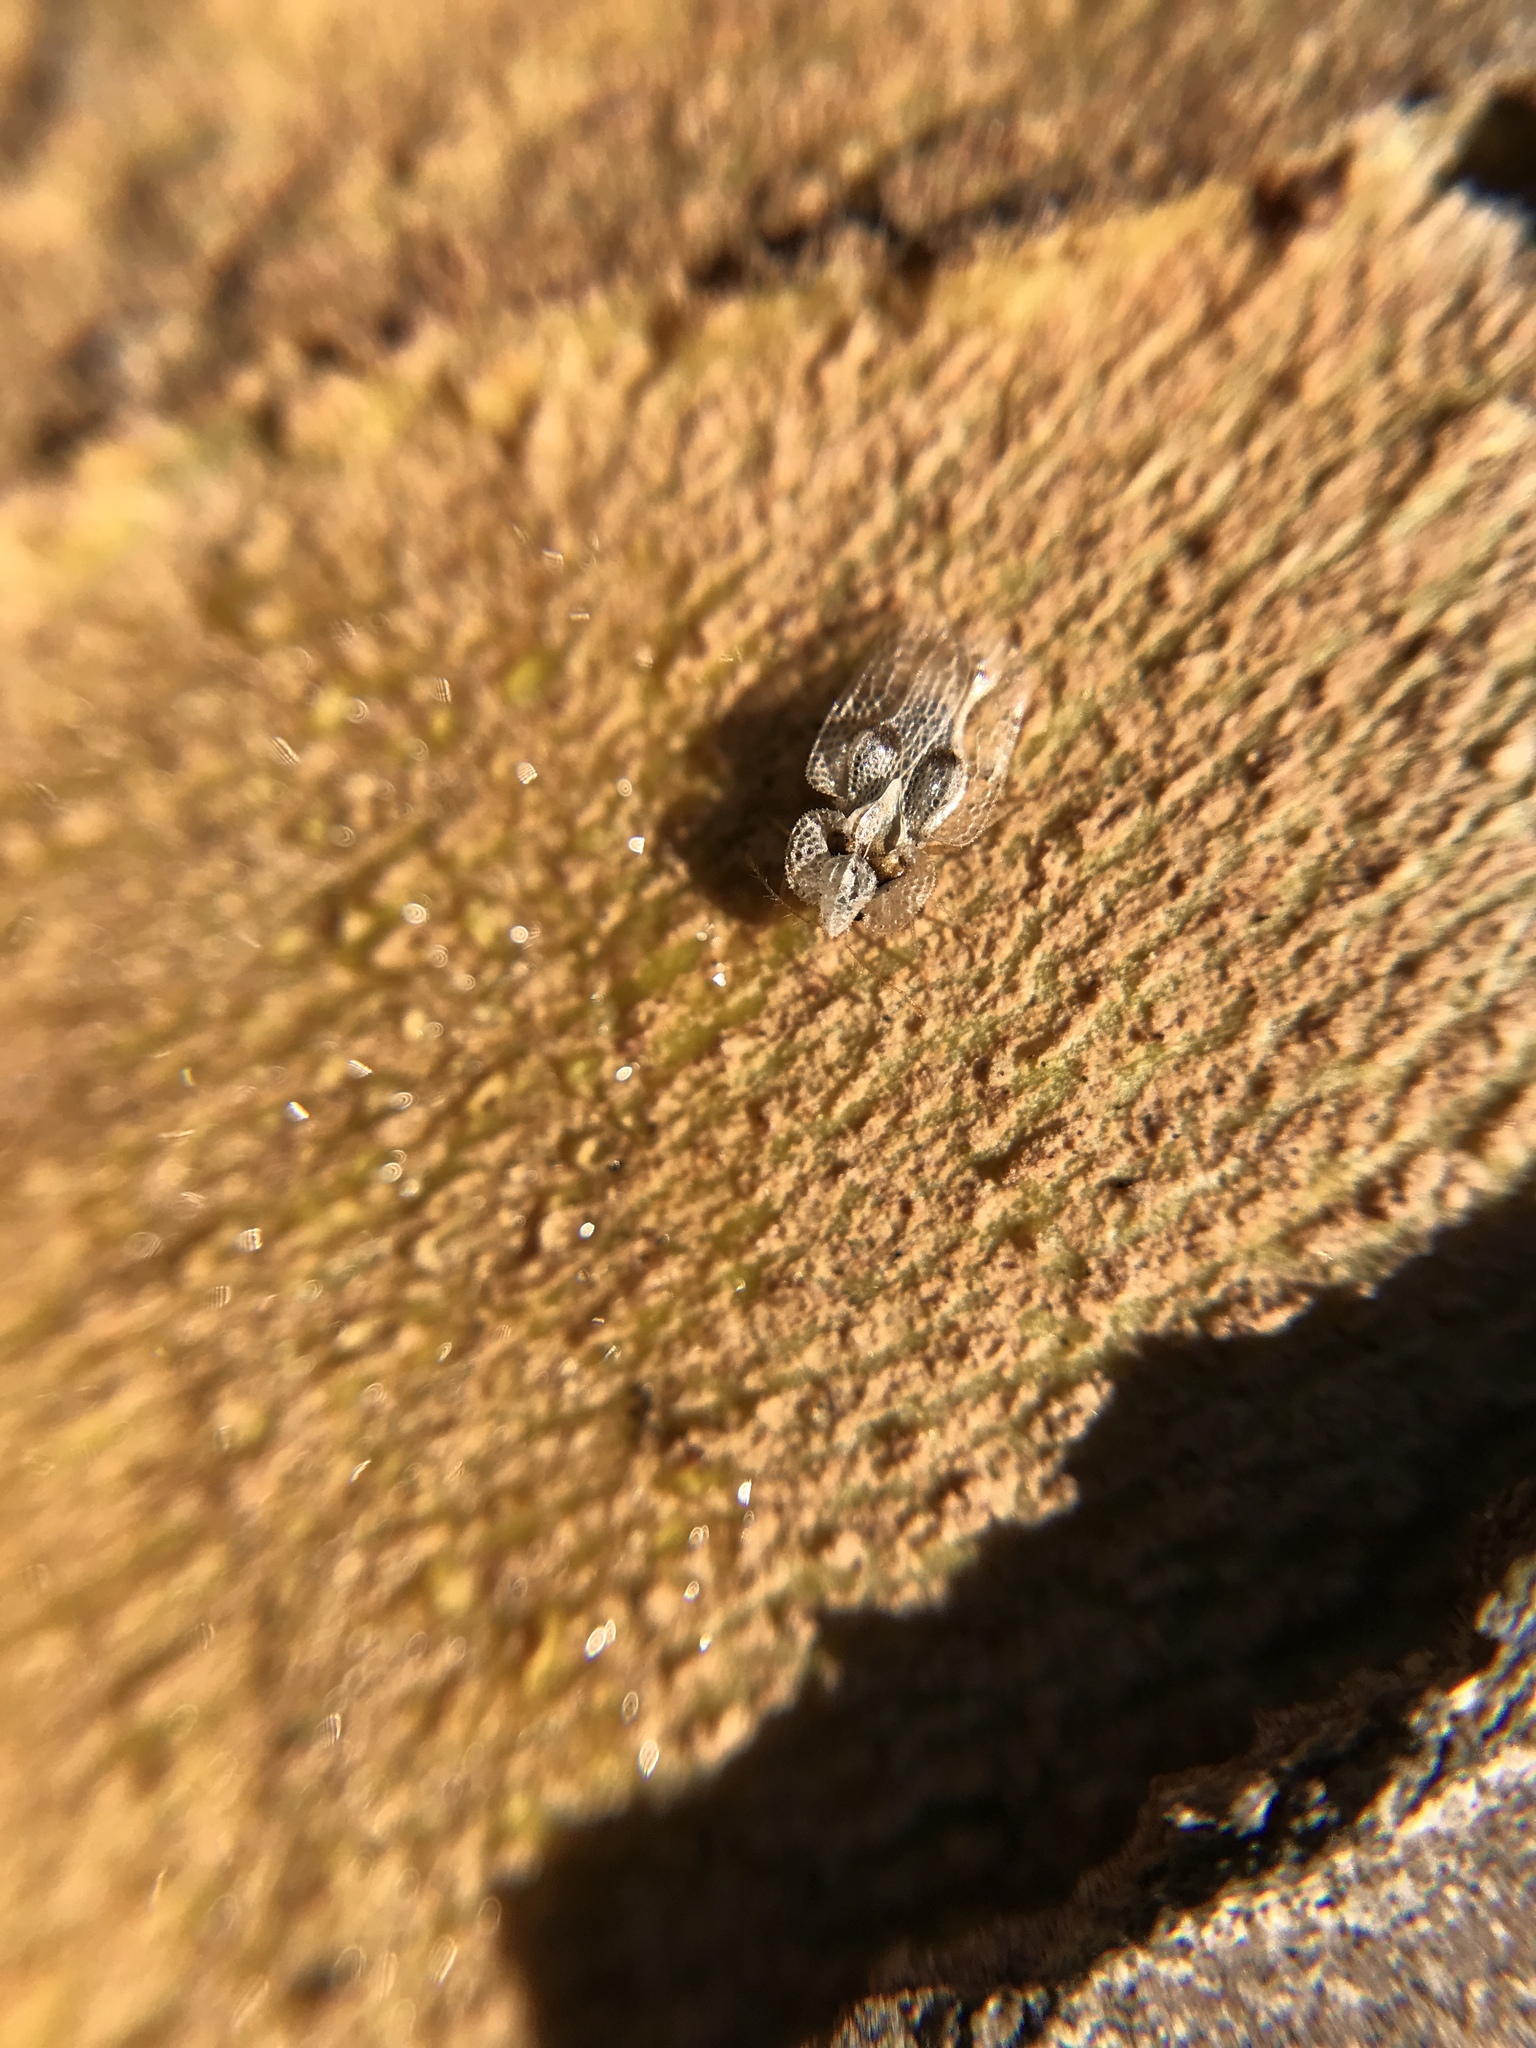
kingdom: Animalia
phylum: Arthropoda
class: Insecta
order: Hemiptera
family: Tingidae
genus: Corythucha
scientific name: Corythucha ciliata
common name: Sycamore lace bug
